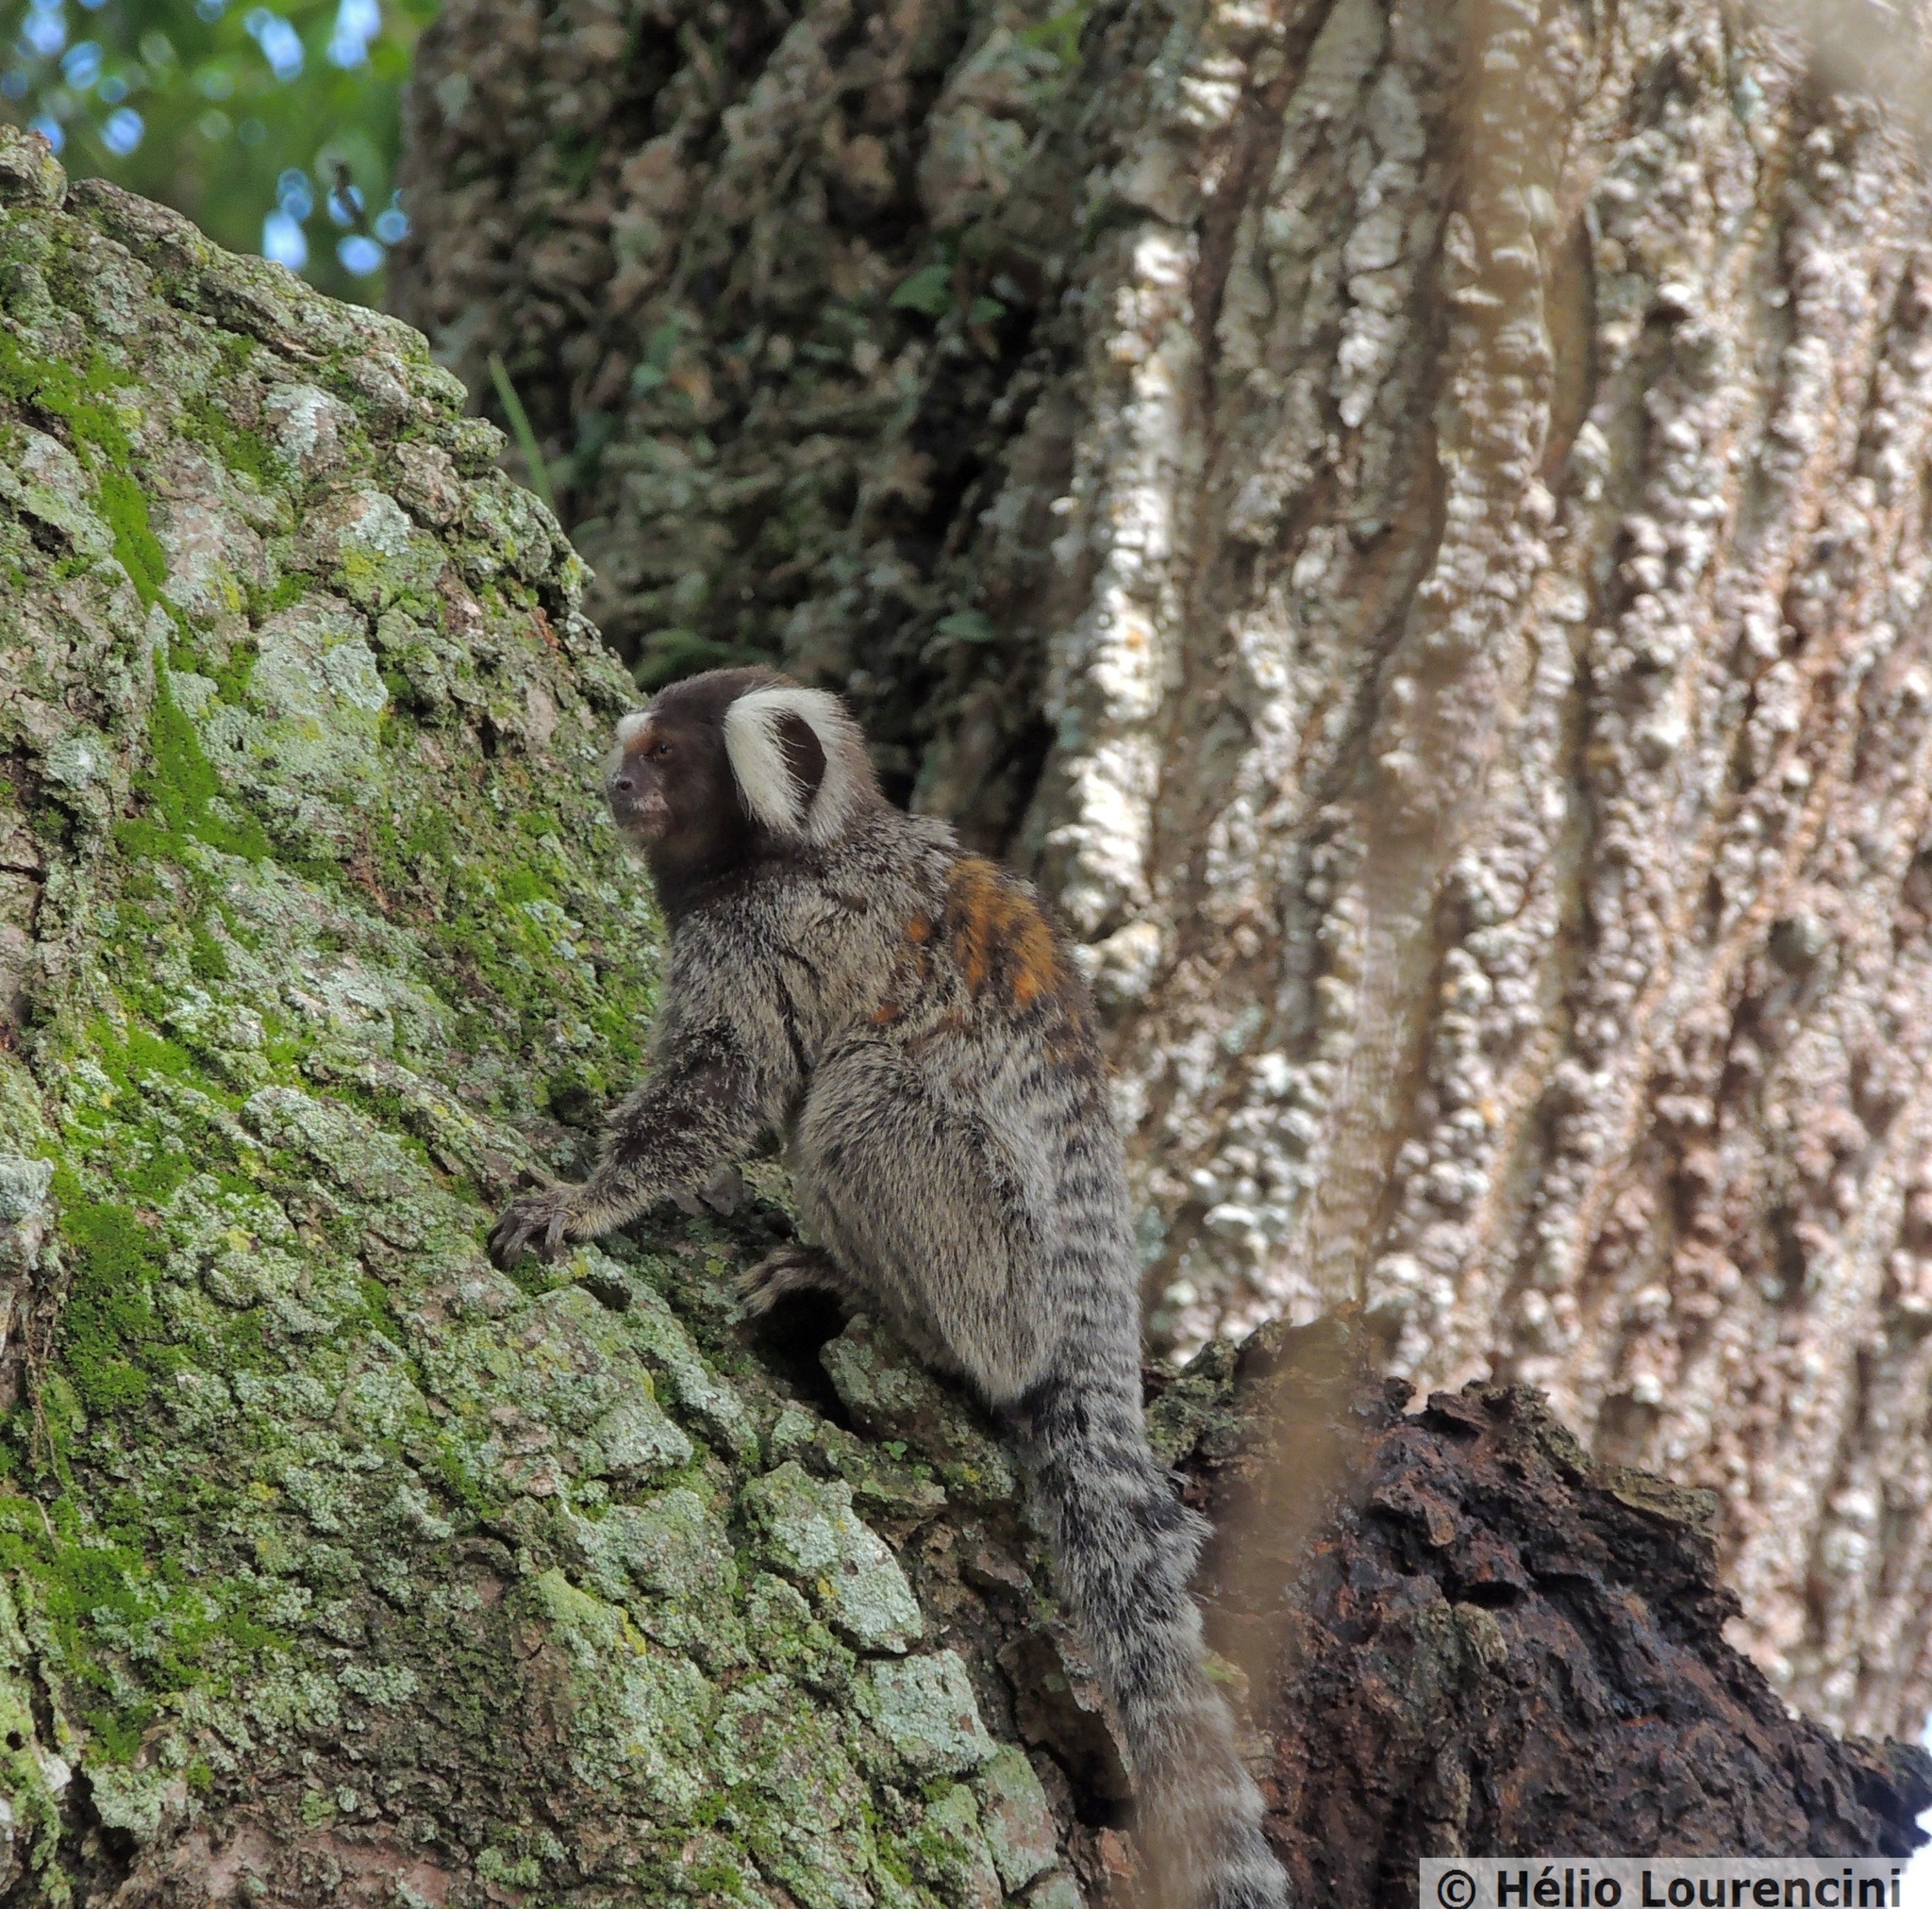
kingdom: Animalia
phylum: Chordata
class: Mammalia
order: Primates
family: Callitrichidae
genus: Callithrix
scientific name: Callithrix jacchus
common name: Common marmoset
